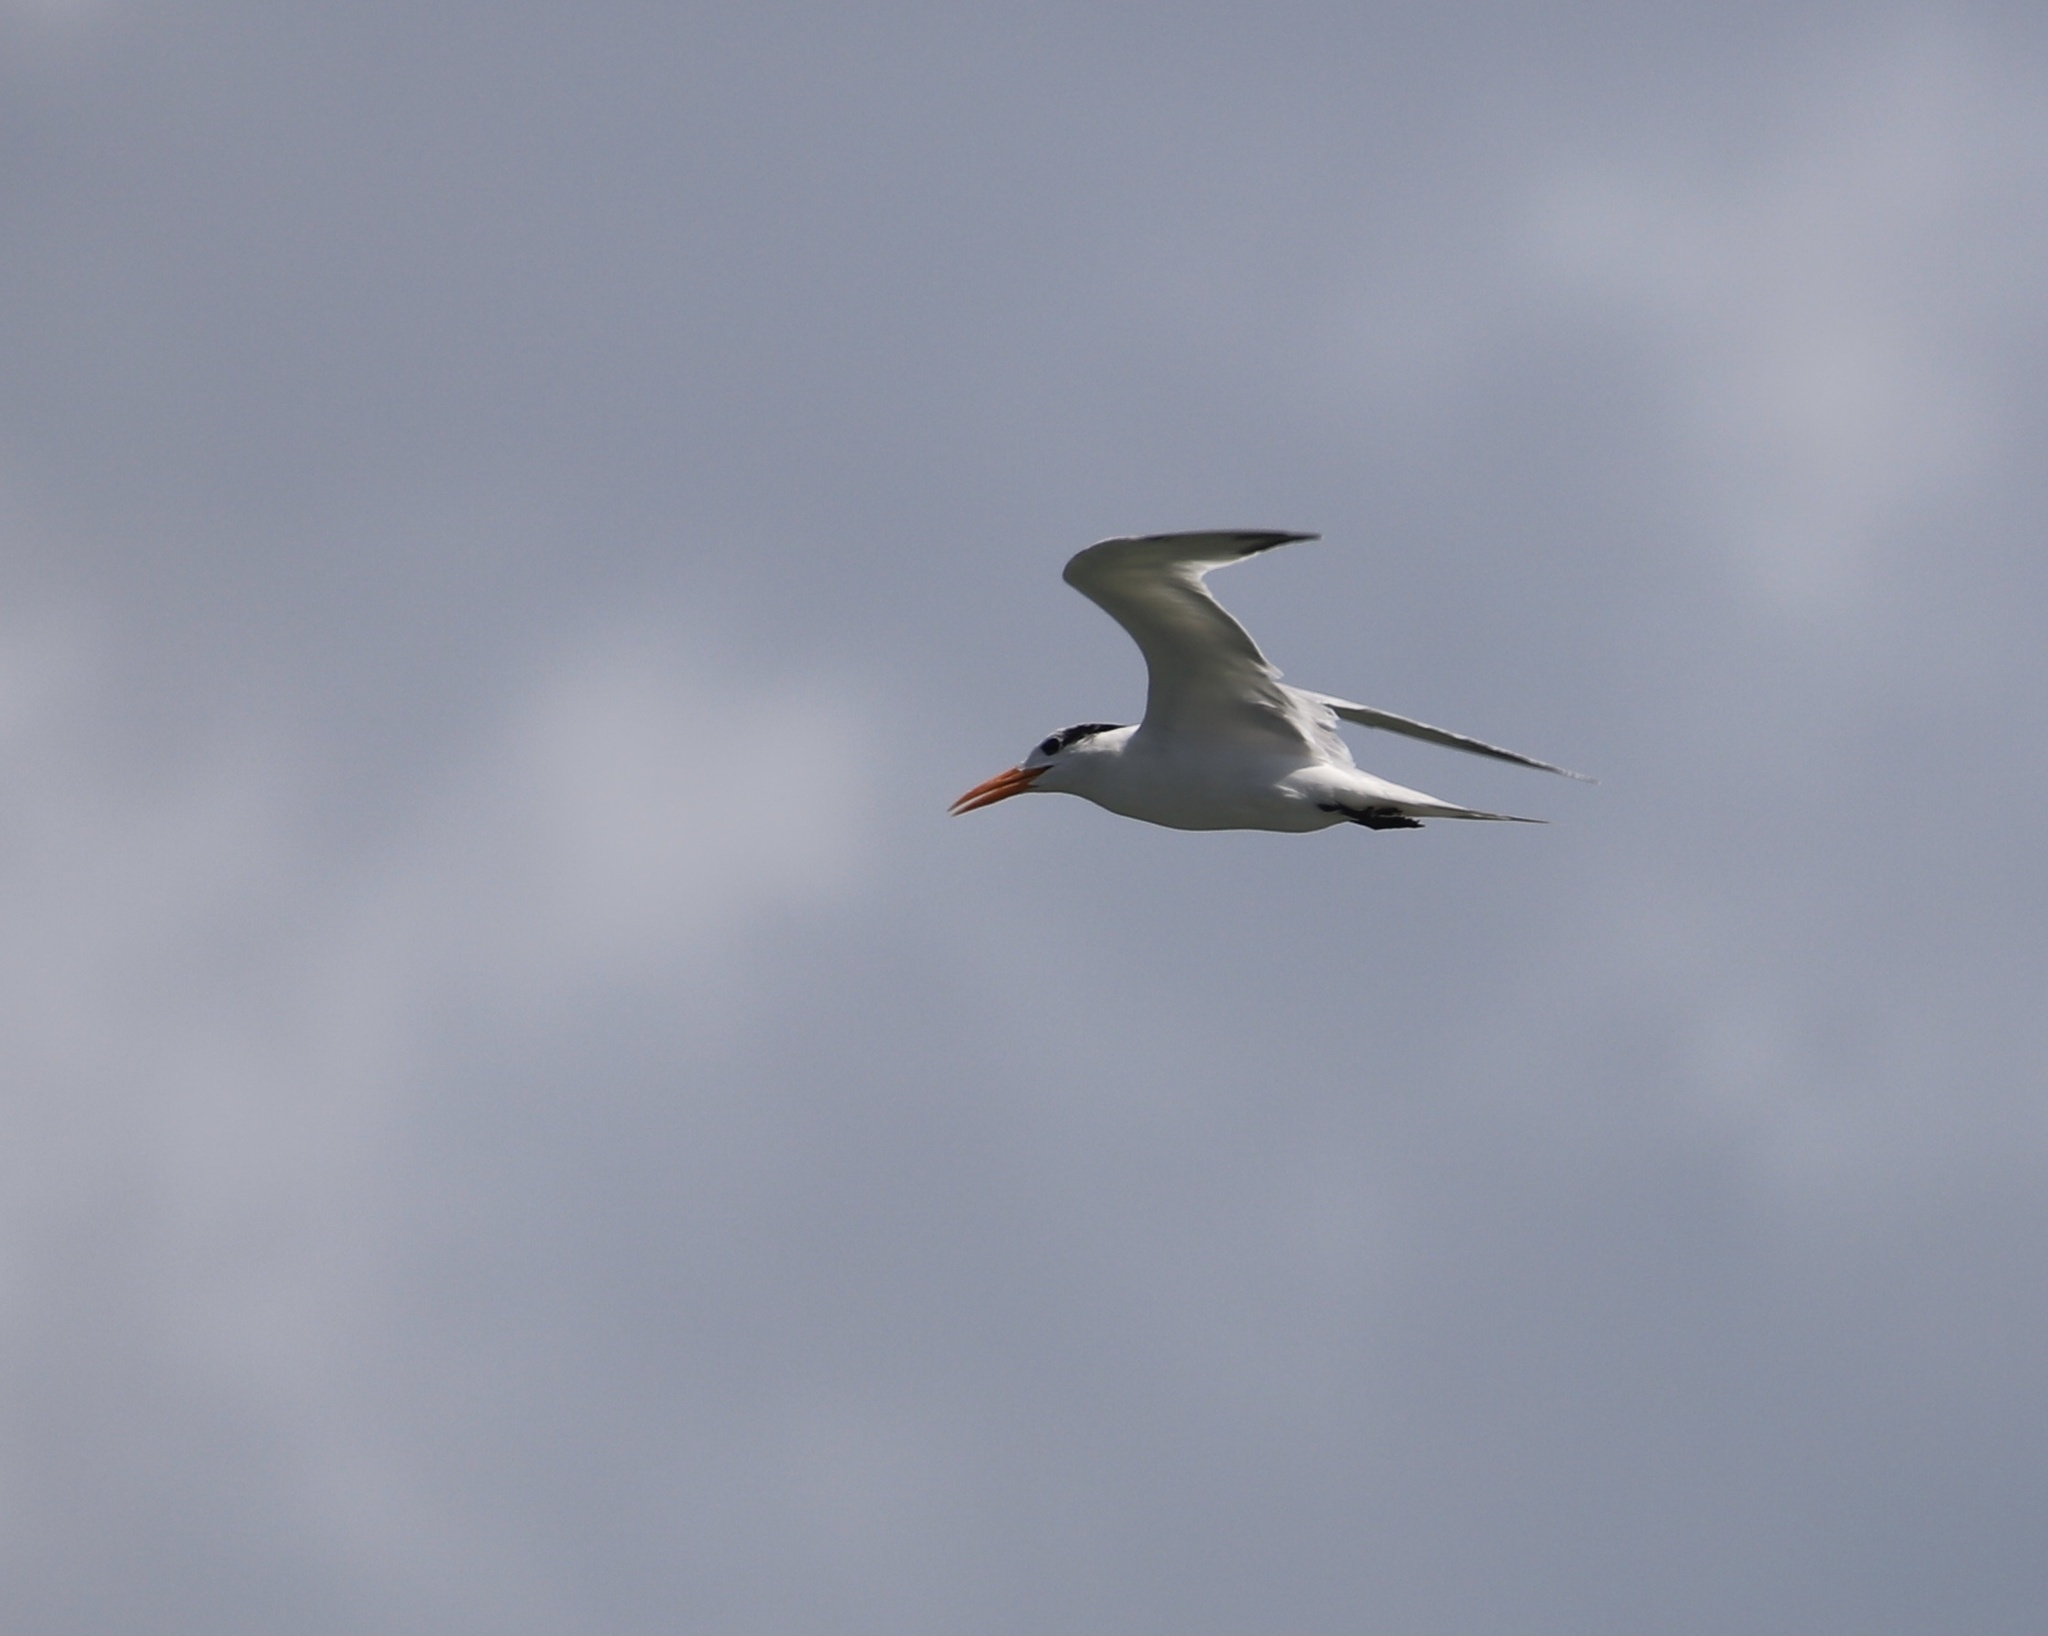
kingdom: Animalia
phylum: Chordata
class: Aves
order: Charadriiformes
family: Laridae
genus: Thalasseus
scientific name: Thalasseus maximus
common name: Royal tern
